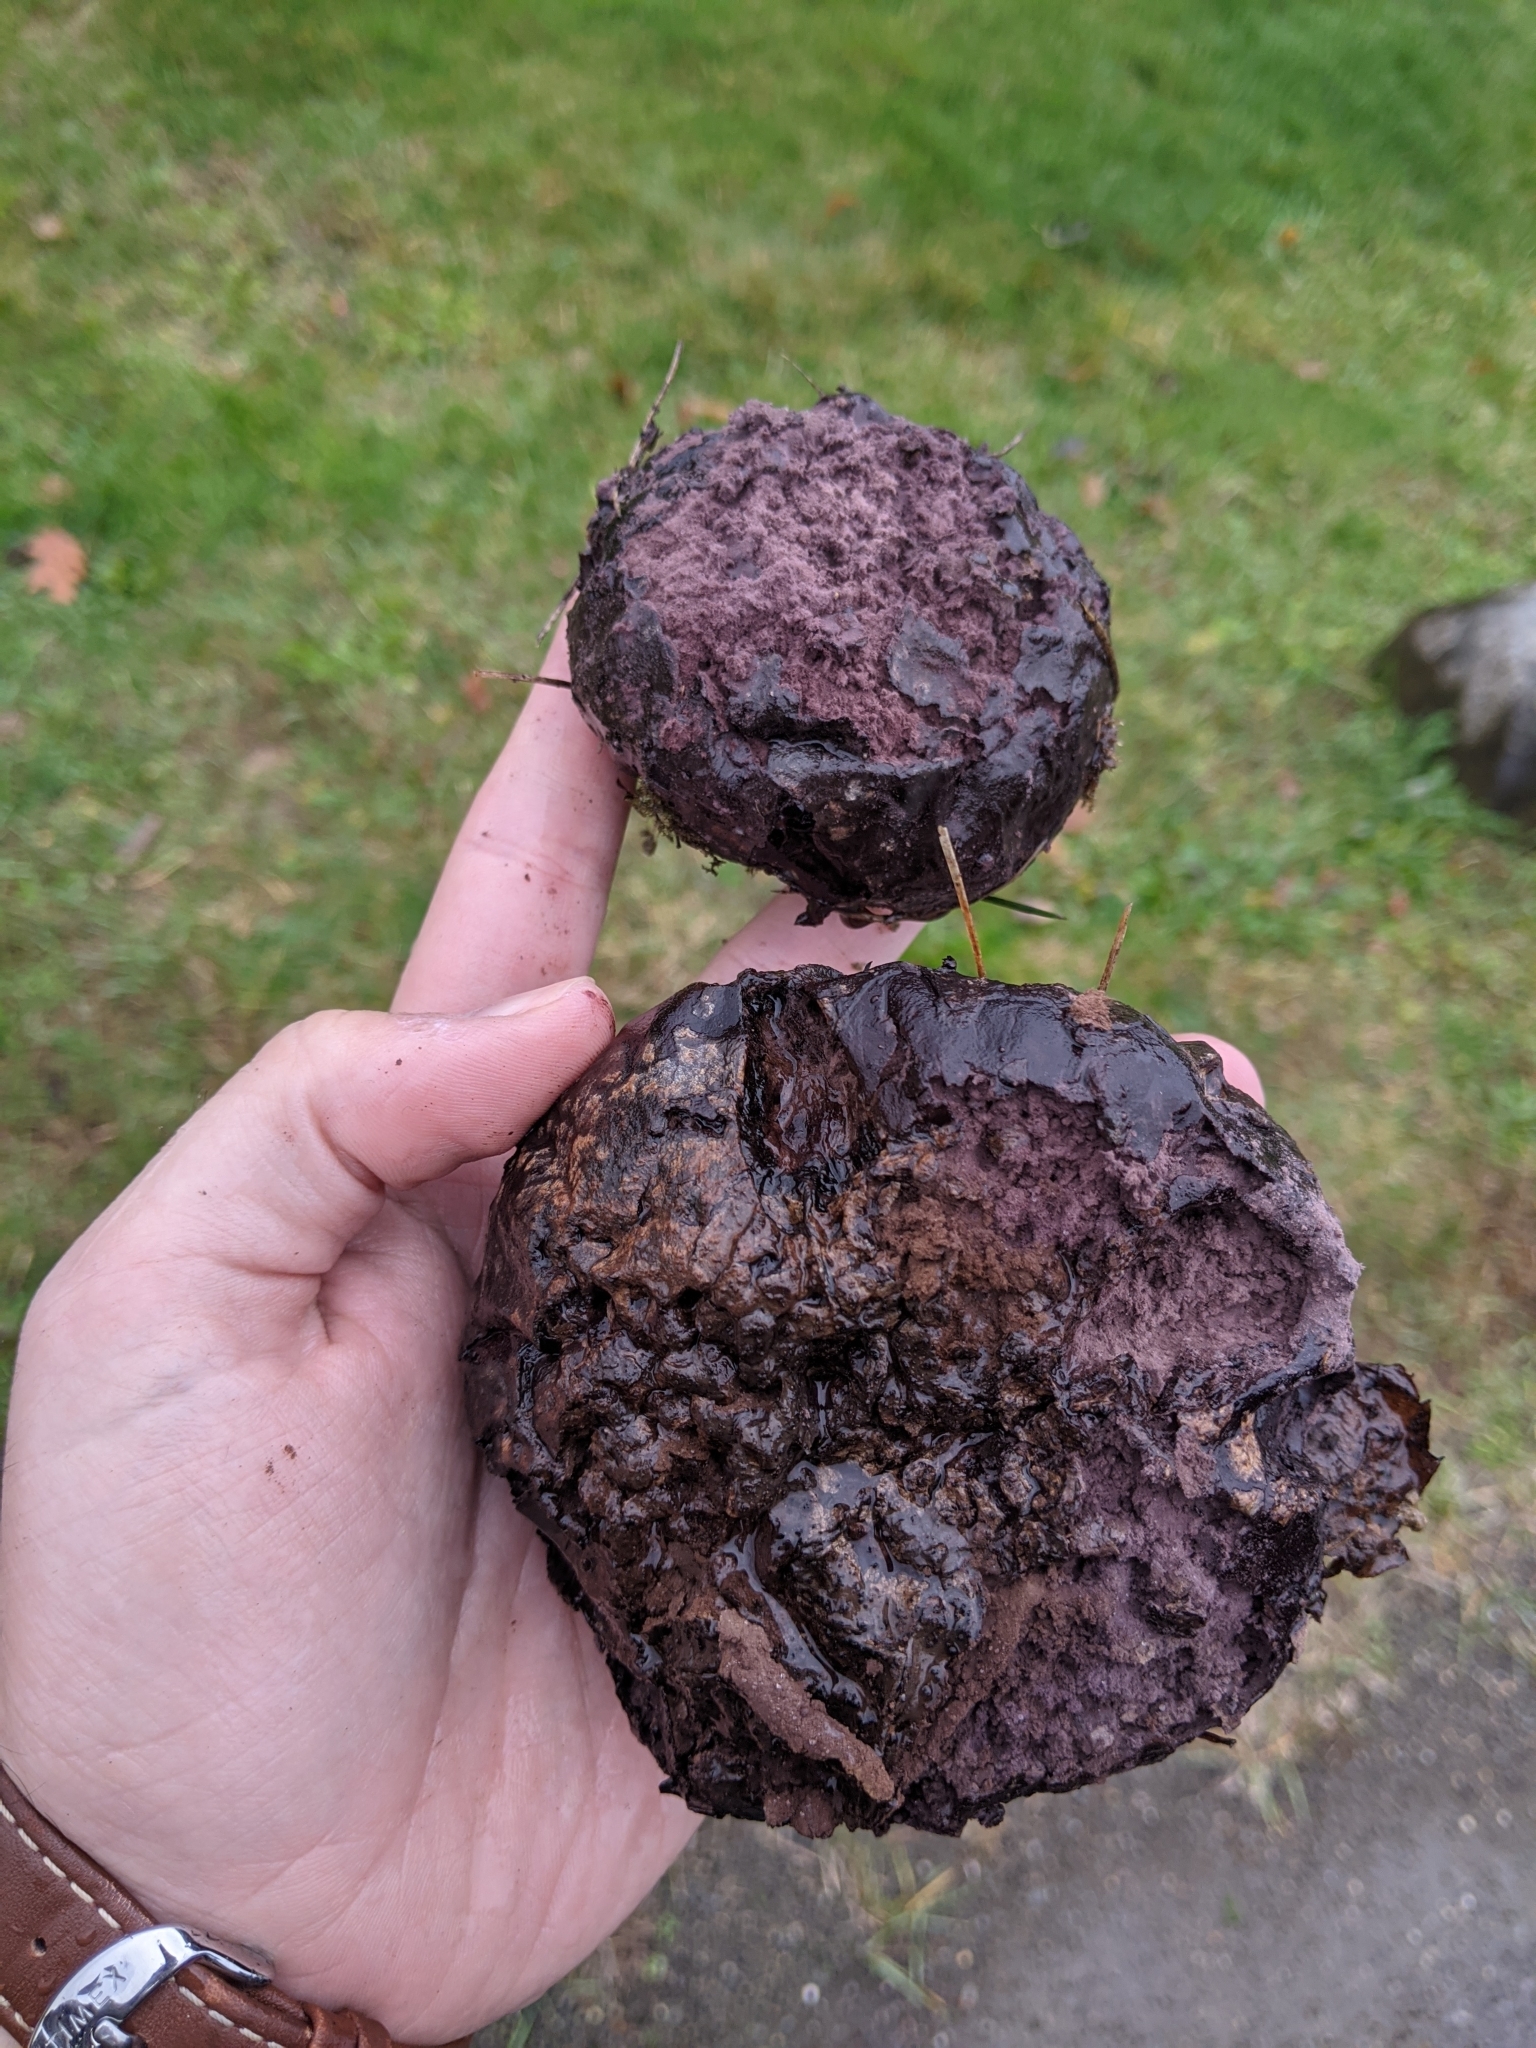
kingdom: Fungi
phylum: Basidiomycota
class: Agaricomycetes
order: Agaricales
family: Lycoperdaceae
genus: Calvatia
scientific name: Calvatia cyathiformis
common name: Purple-spored puffball
